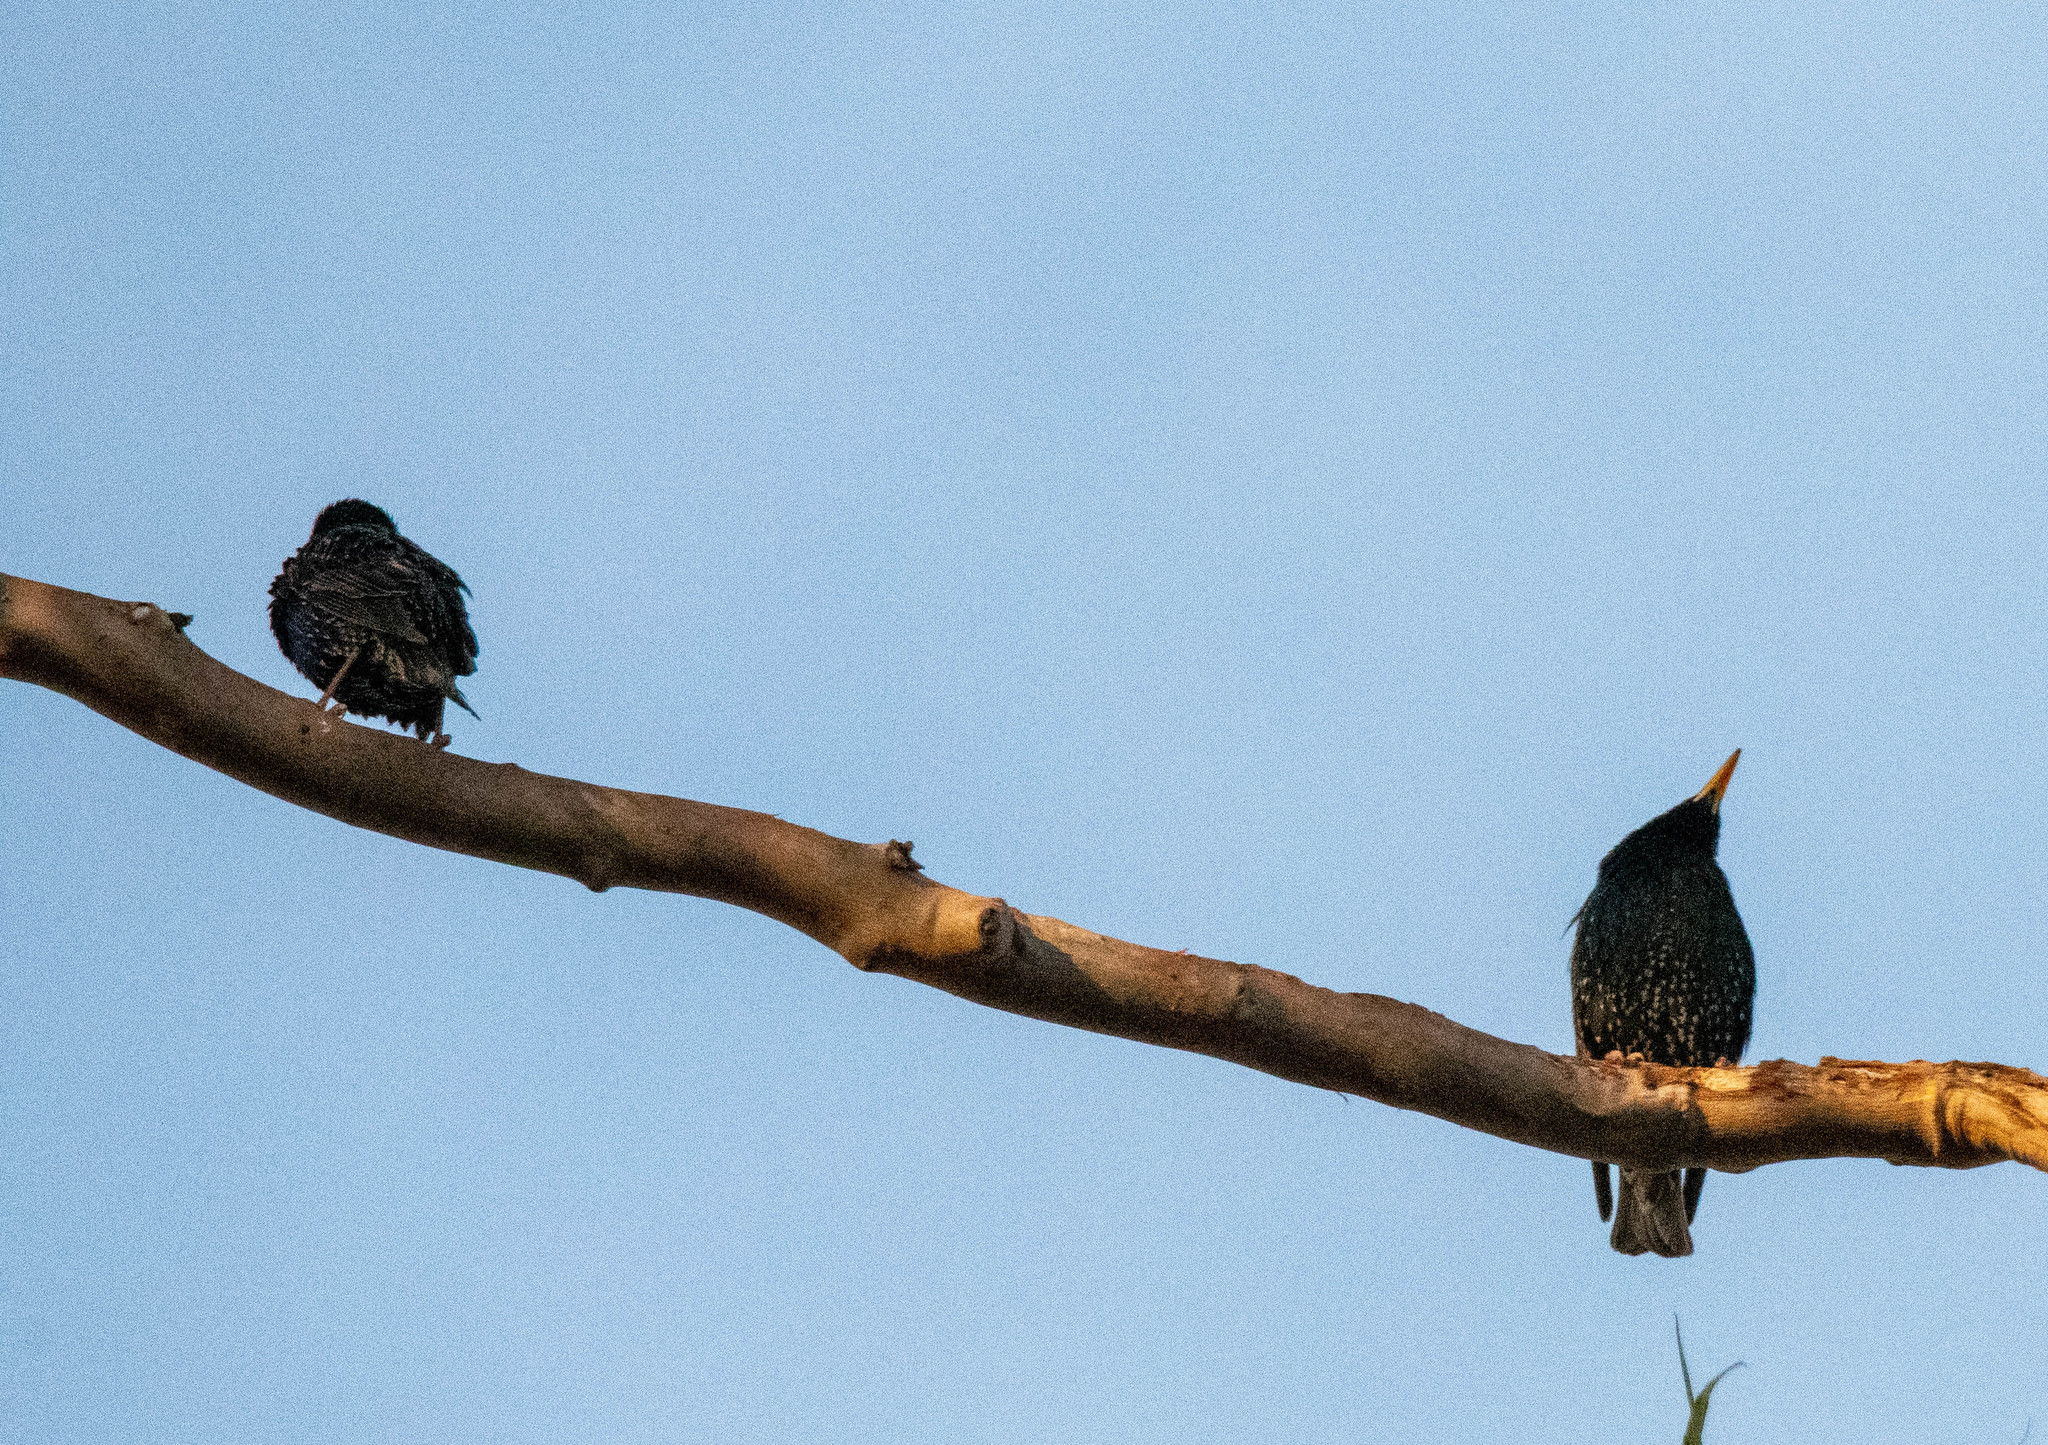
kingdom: Animalia
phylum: Chordata
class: Aves
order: Passeriformes
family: Sturnidae
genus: Sturnus
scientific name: Sturnus vulgaris
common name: Common starling
